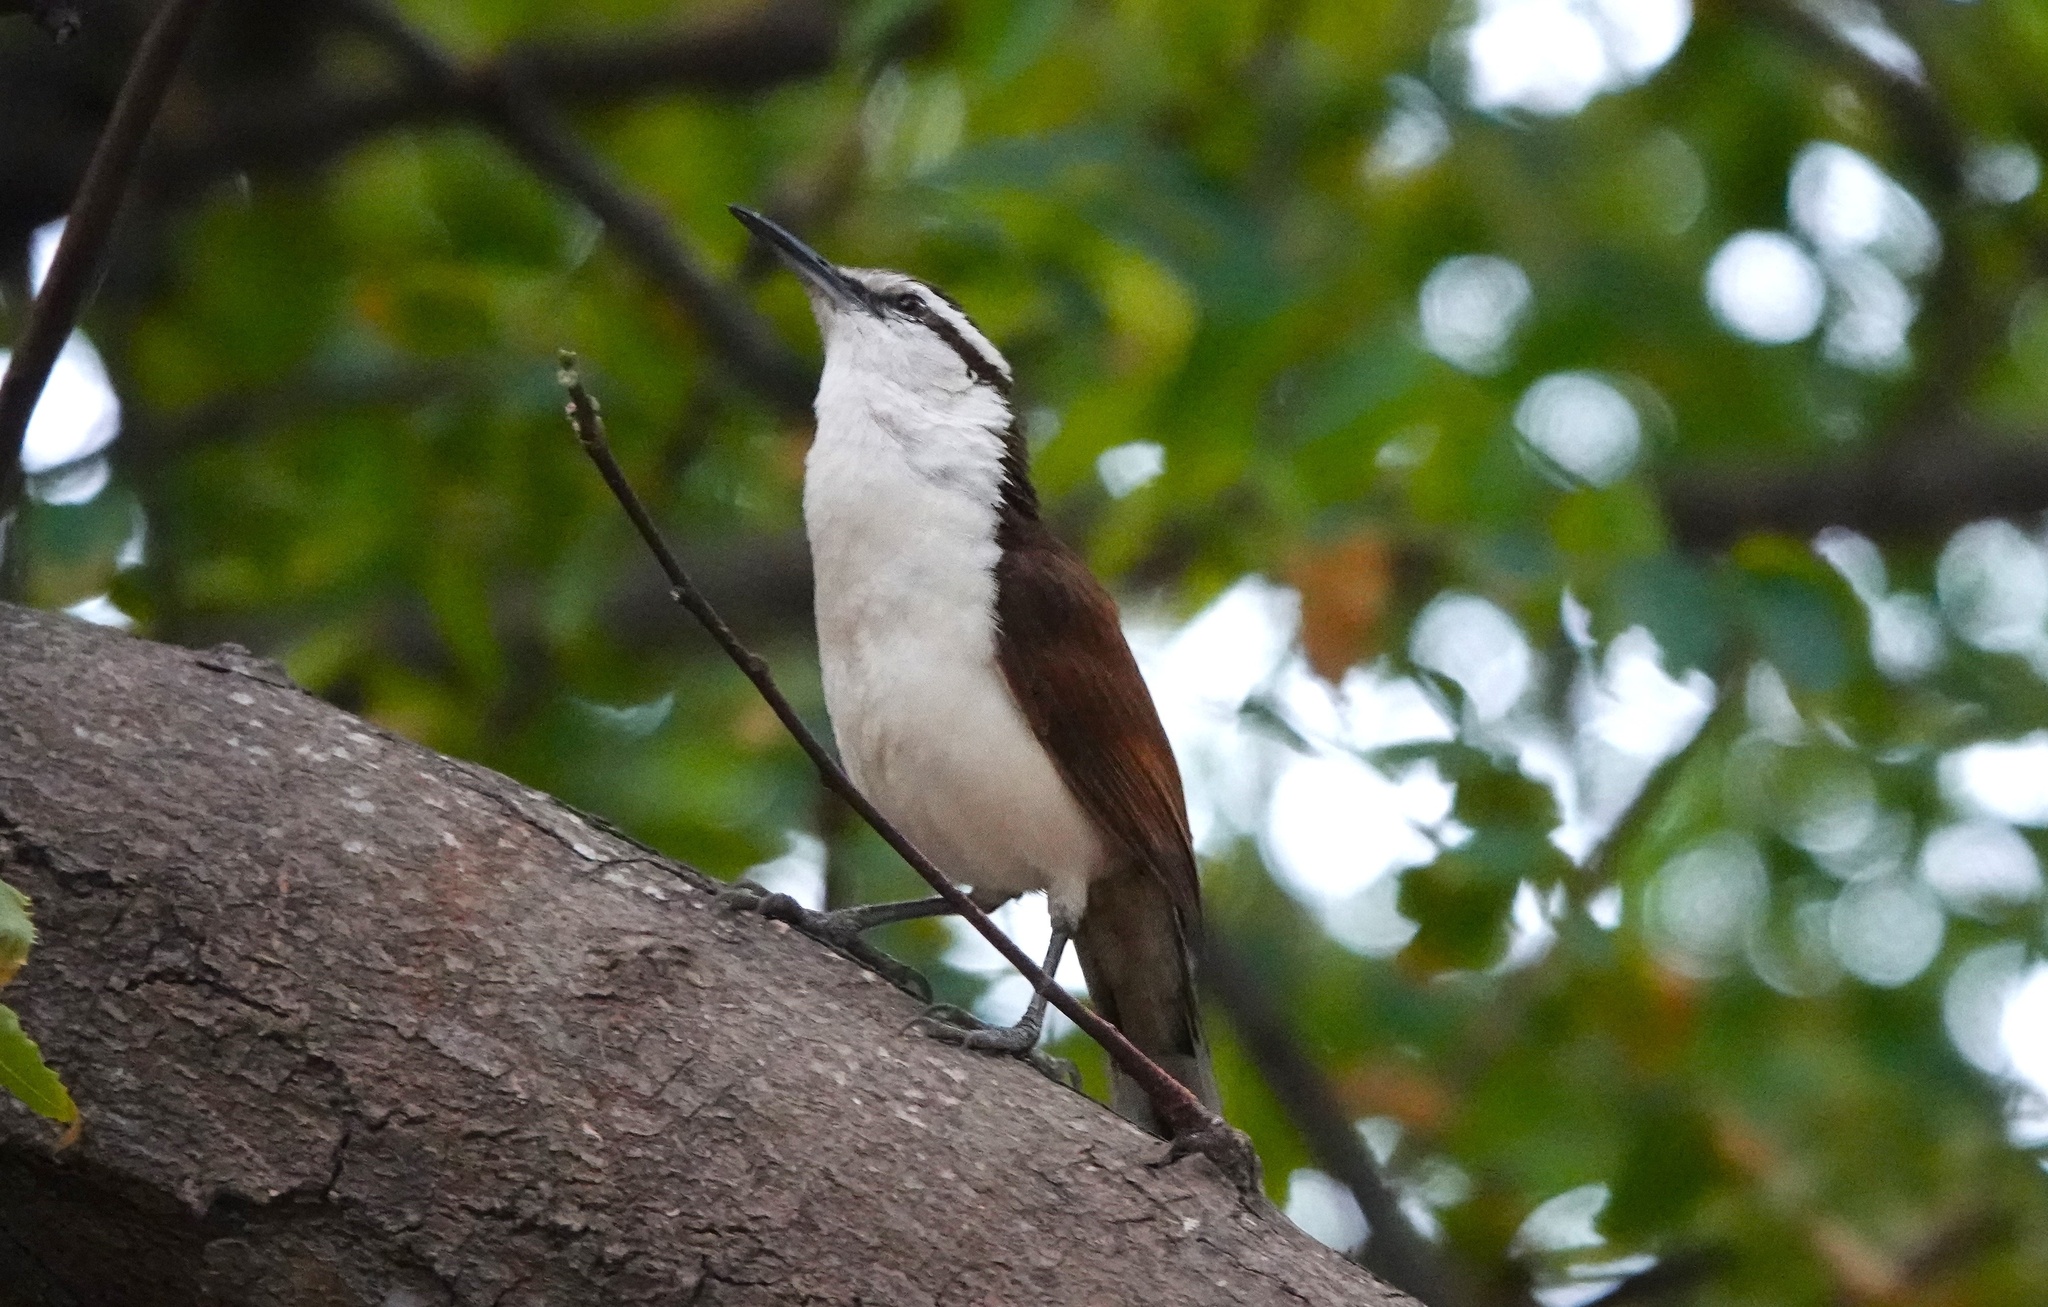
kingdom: Animalia
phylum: Chordata
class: Aves
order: Passeriformes
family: Troglodytidae
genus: Campylorhynchus
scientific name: Campylorhynchus griseus
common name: Bicolored wren
